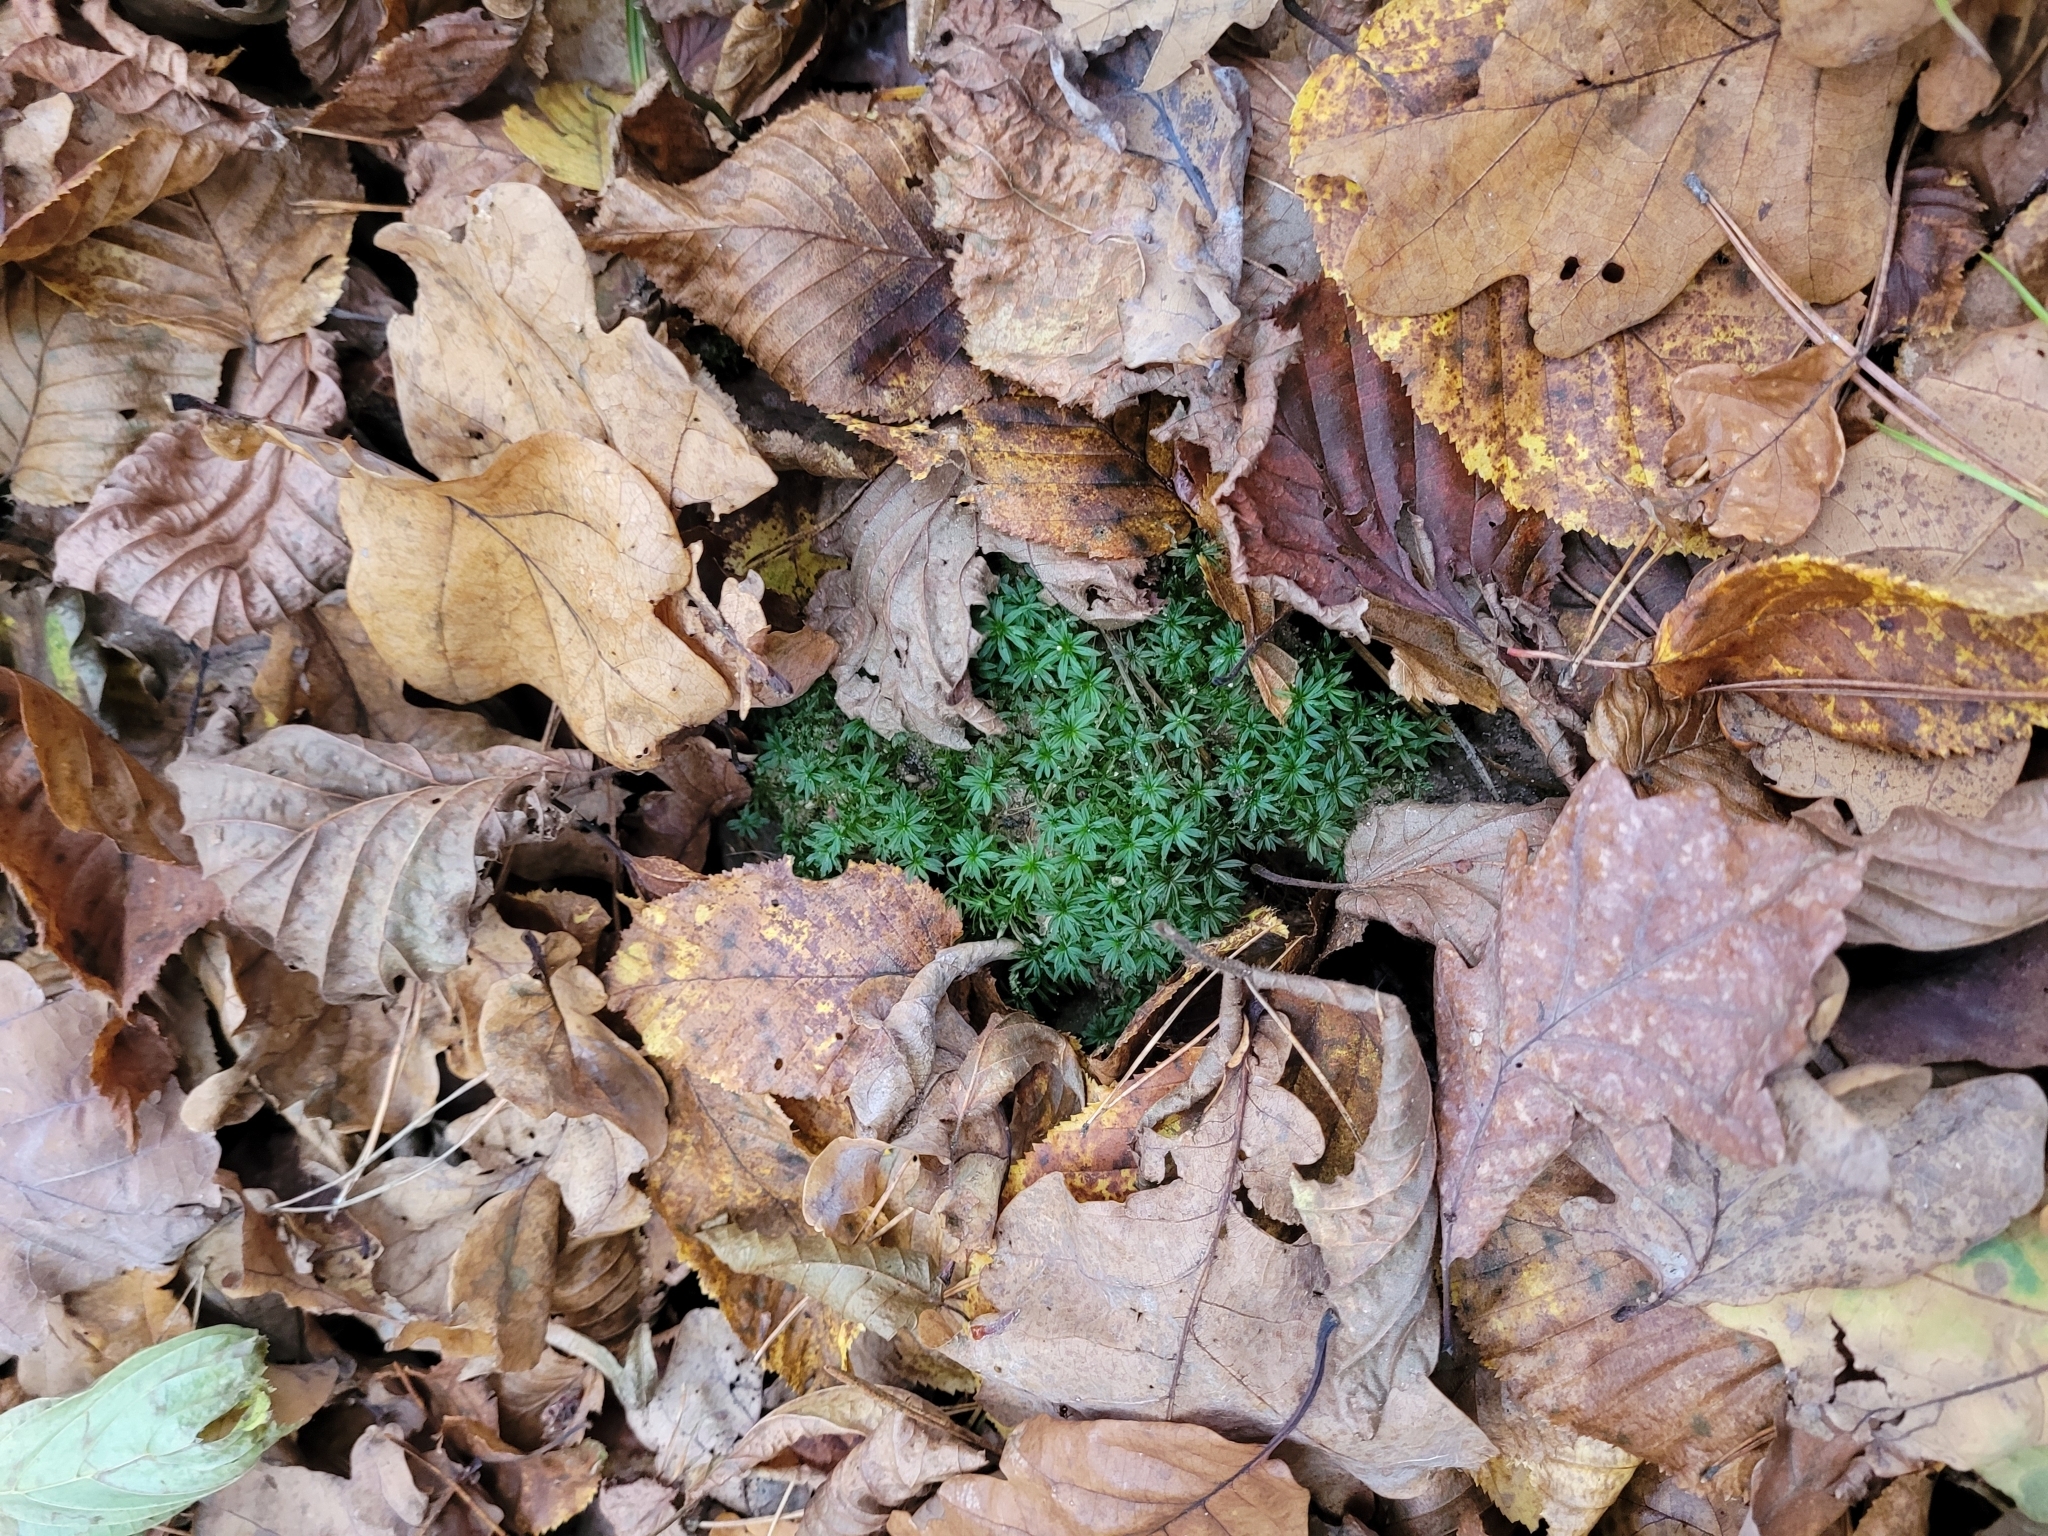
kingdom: Plantae
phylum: Bryophyta
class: Polytrichopsida
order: Polytrichales
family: Polytrichaceae
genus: Atrichum
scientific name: Atrichum undulatum
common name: Common smoothcap
